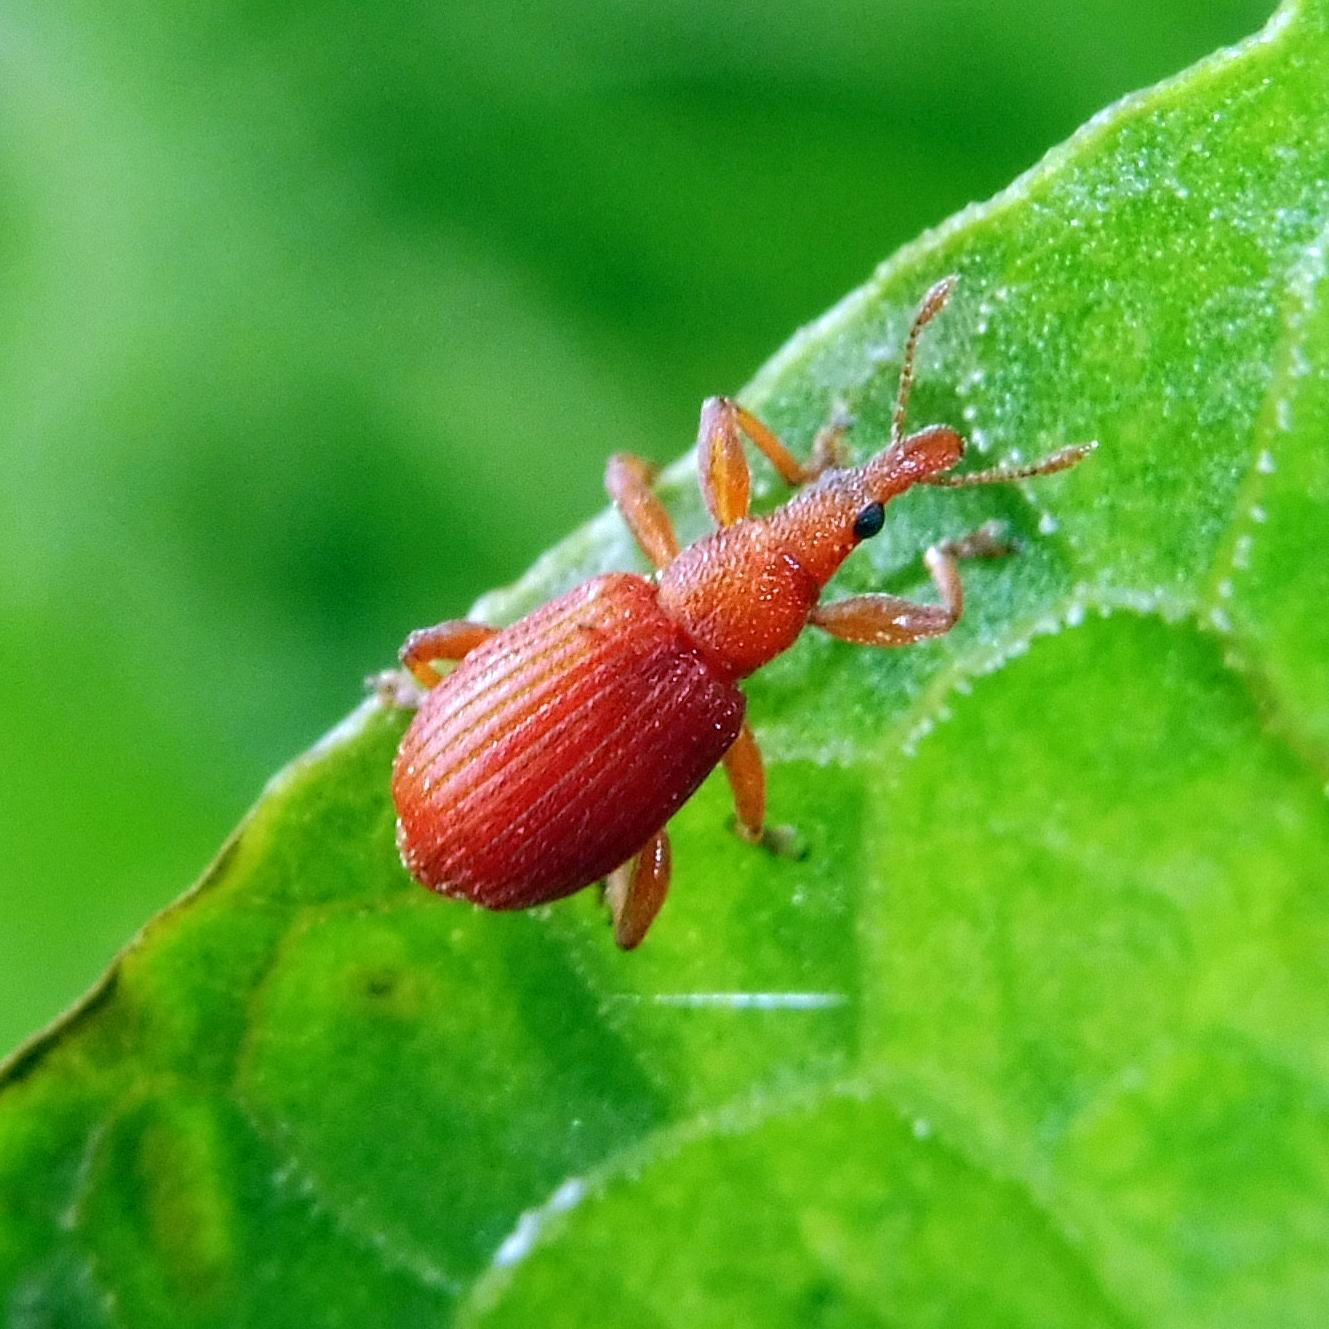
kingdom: Animalia
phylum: Arthropoda
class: Insecta
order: Coleoptera
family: Apionidae
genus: Apion
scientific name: Apion frumentarium
